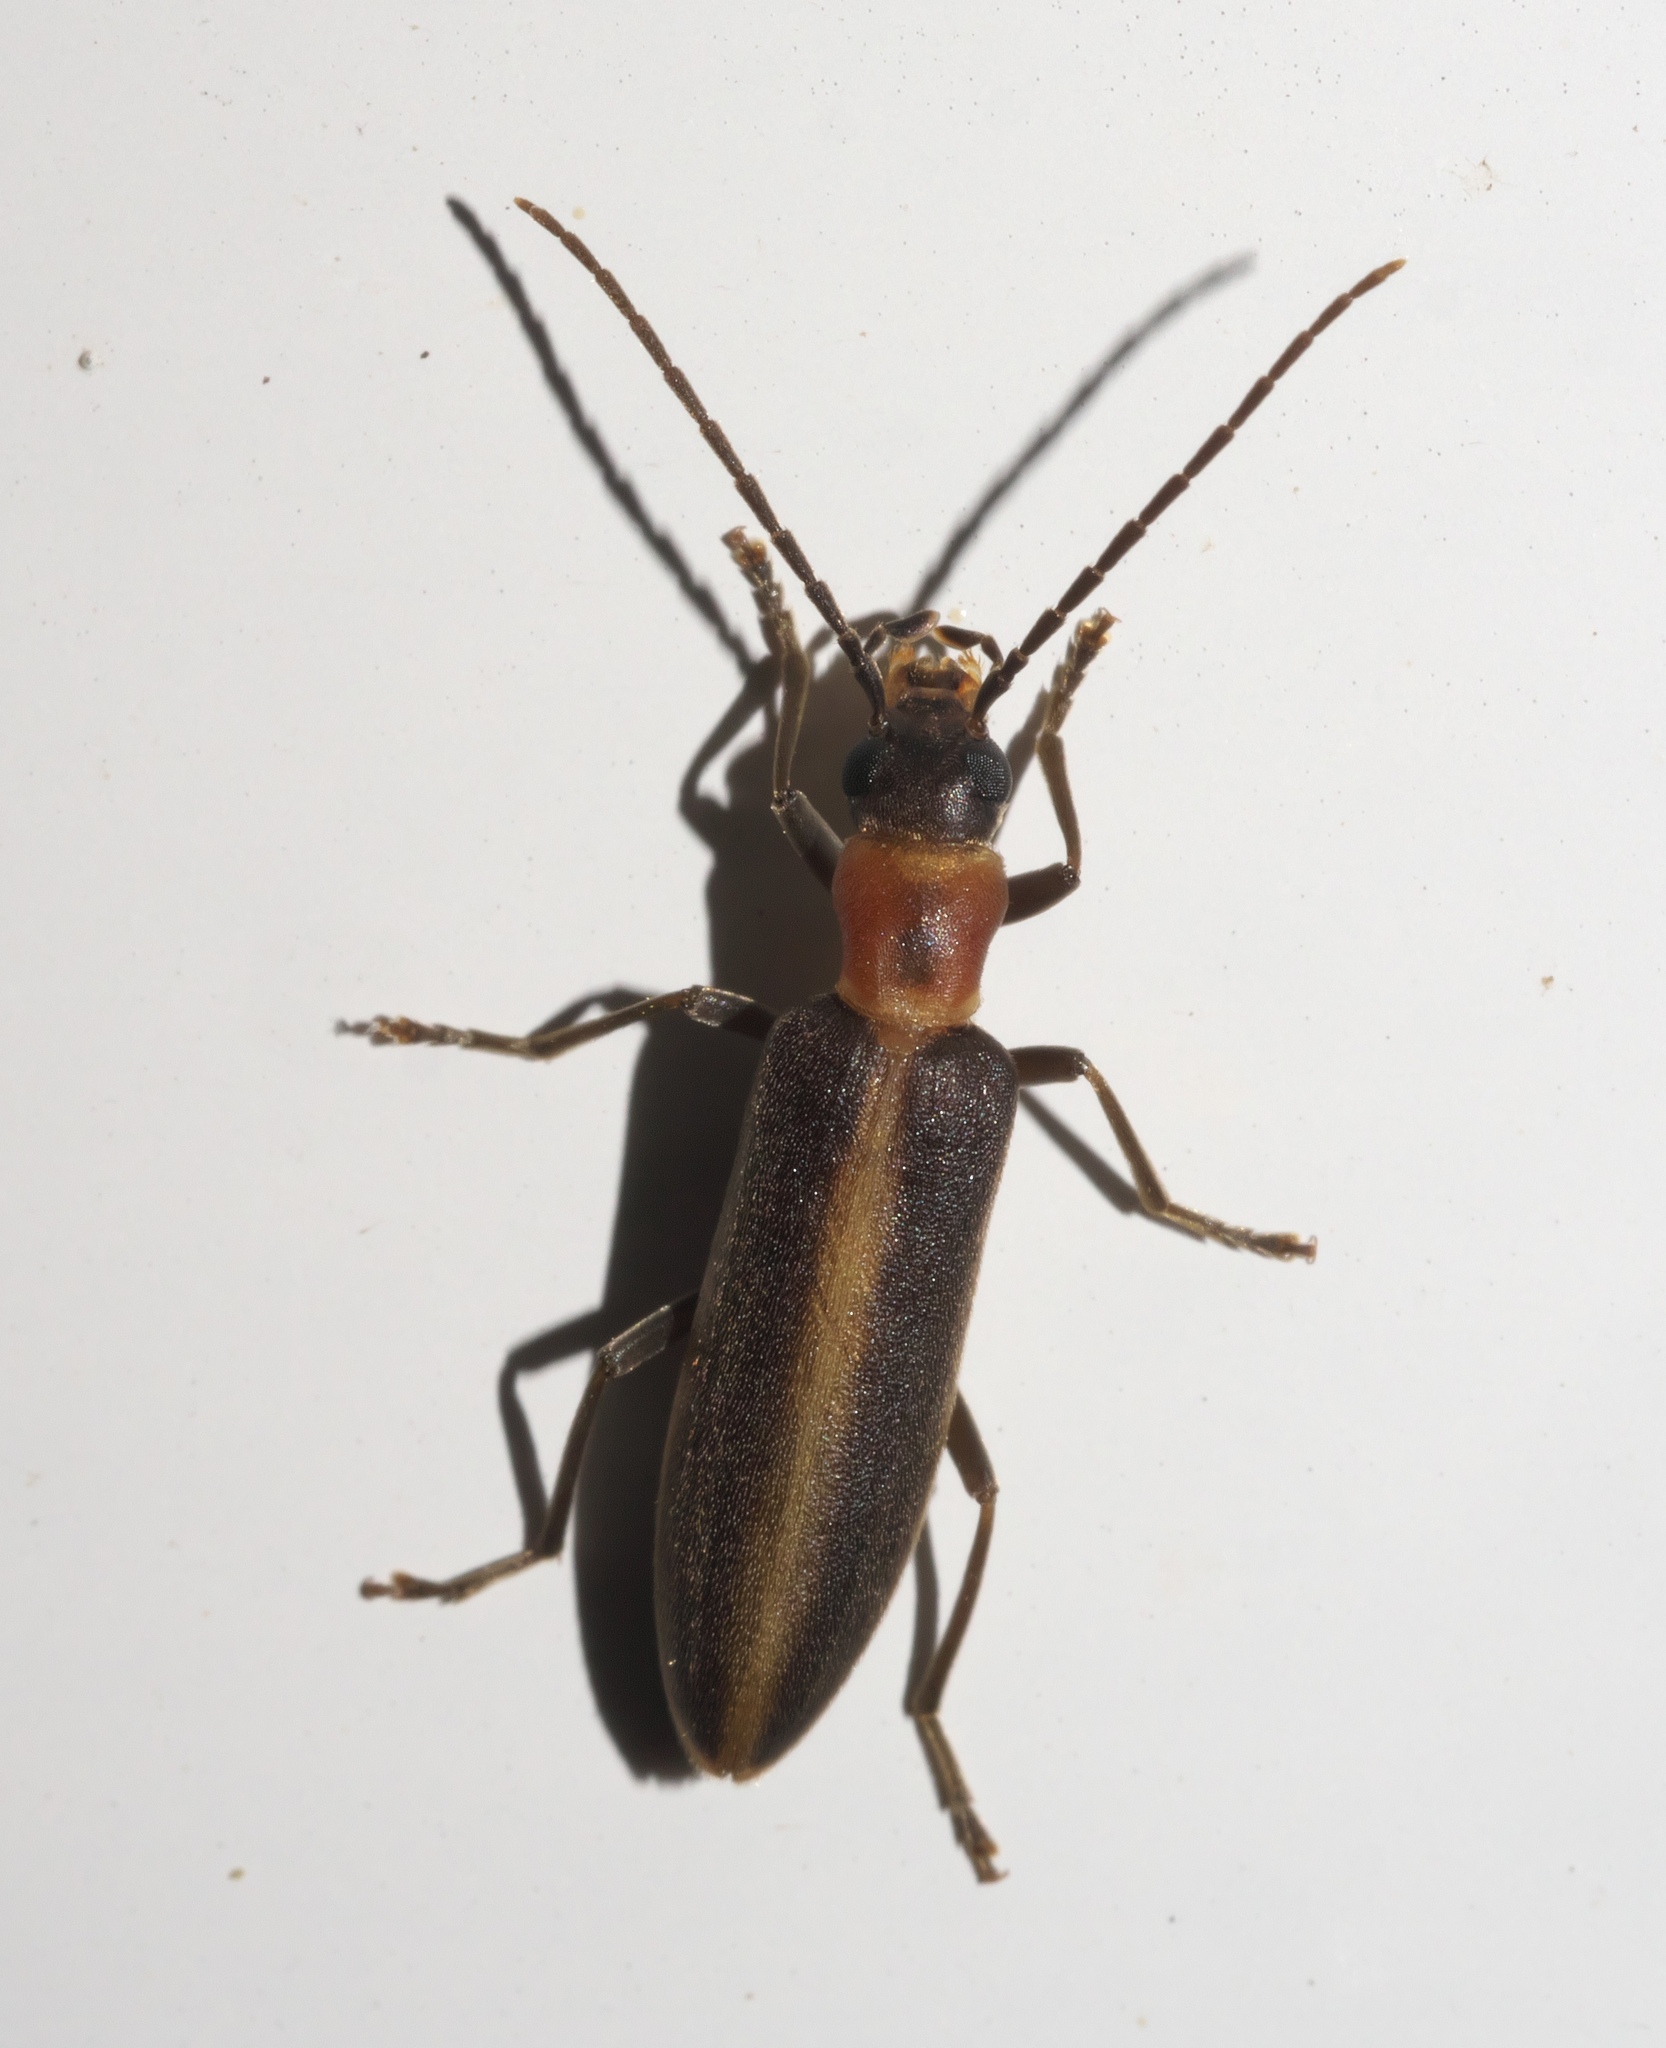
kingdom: Animalia
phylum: Arthropoda
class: Insecta
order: Coleoptera
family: Oedemeridae
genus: Oxycopis
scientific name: Oxycopis mimetica
